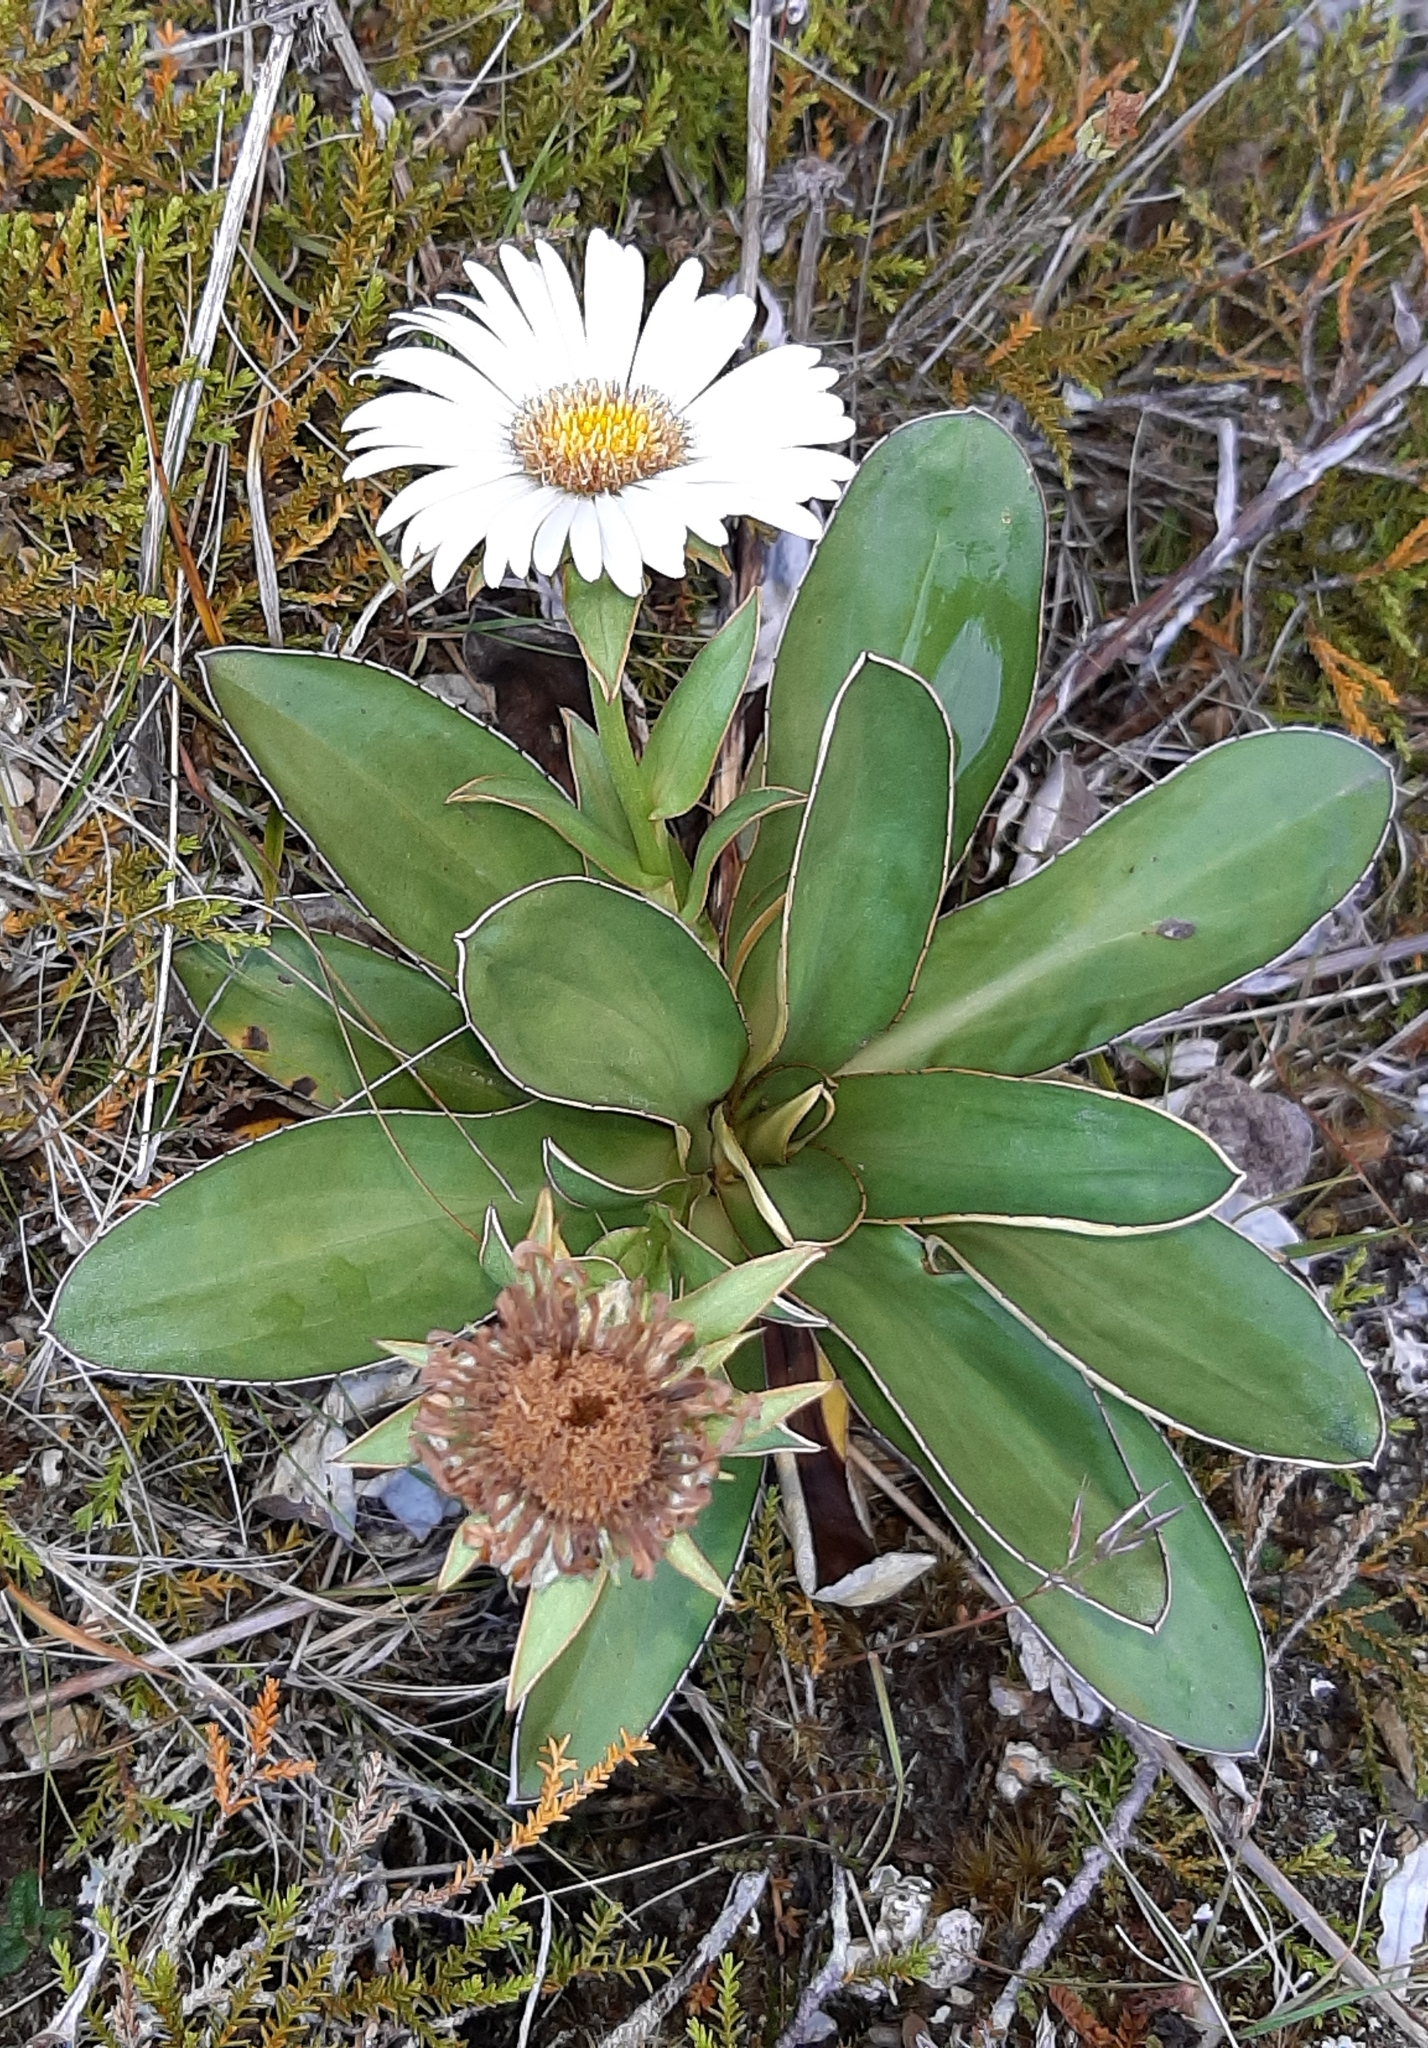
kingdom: Plantae
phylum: Tracheophyta
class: Magnoliopsida
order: Asterales
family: Asteraceae
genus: Celmisia
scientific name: Celmisia dallii
